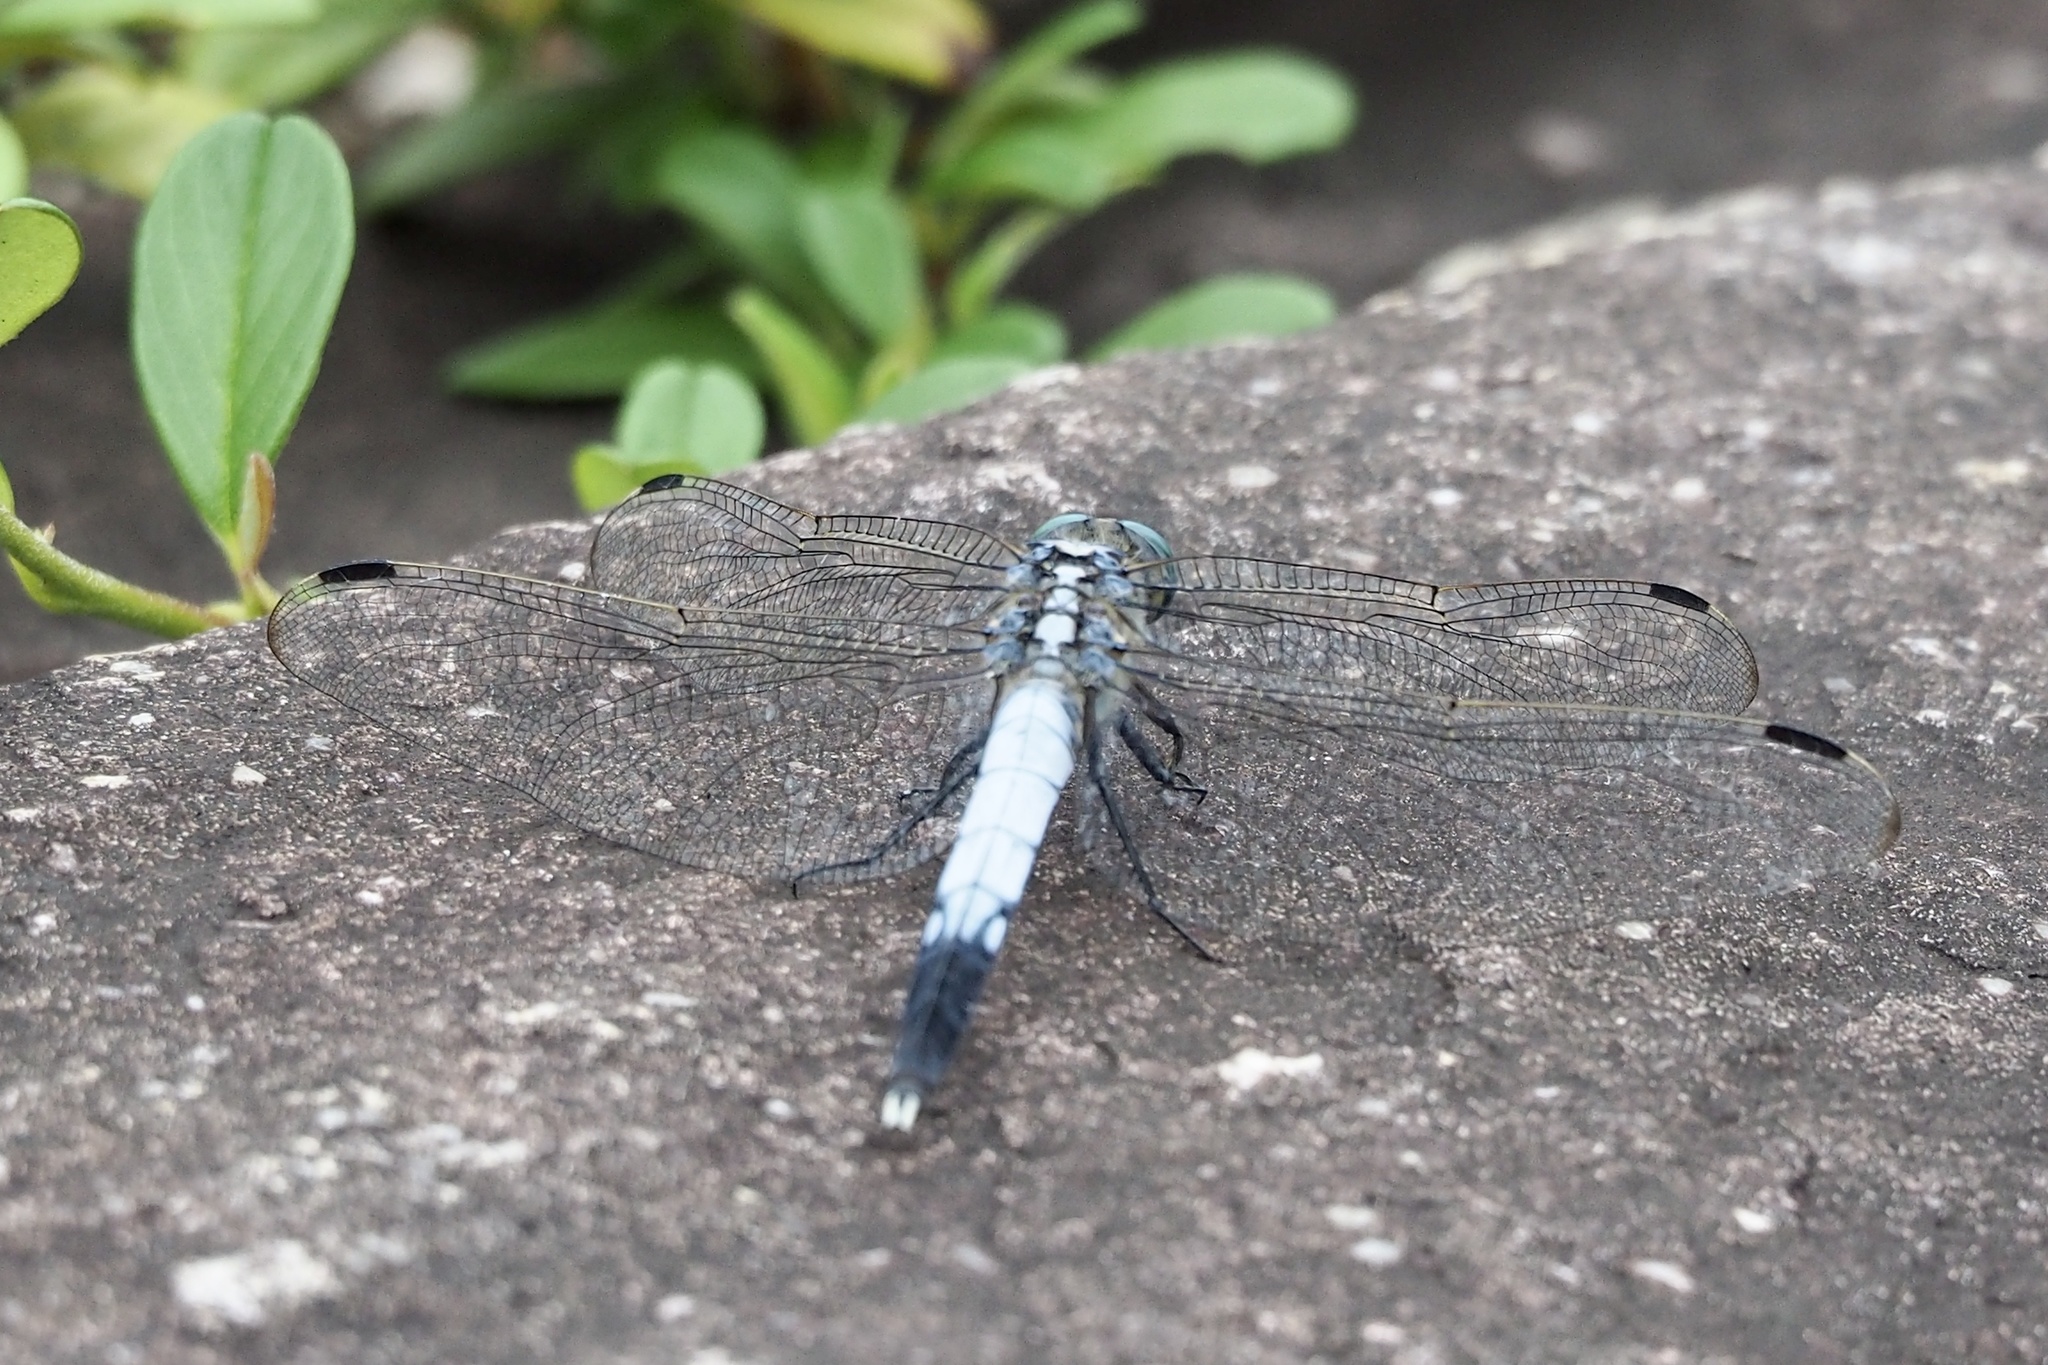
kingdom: Animalia
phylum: Arthropoda
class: Insecta
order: Odonata
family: Libellulidae
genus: Orthetrum
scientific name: Orthetrum albistylum
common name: White-tailed skimmer
